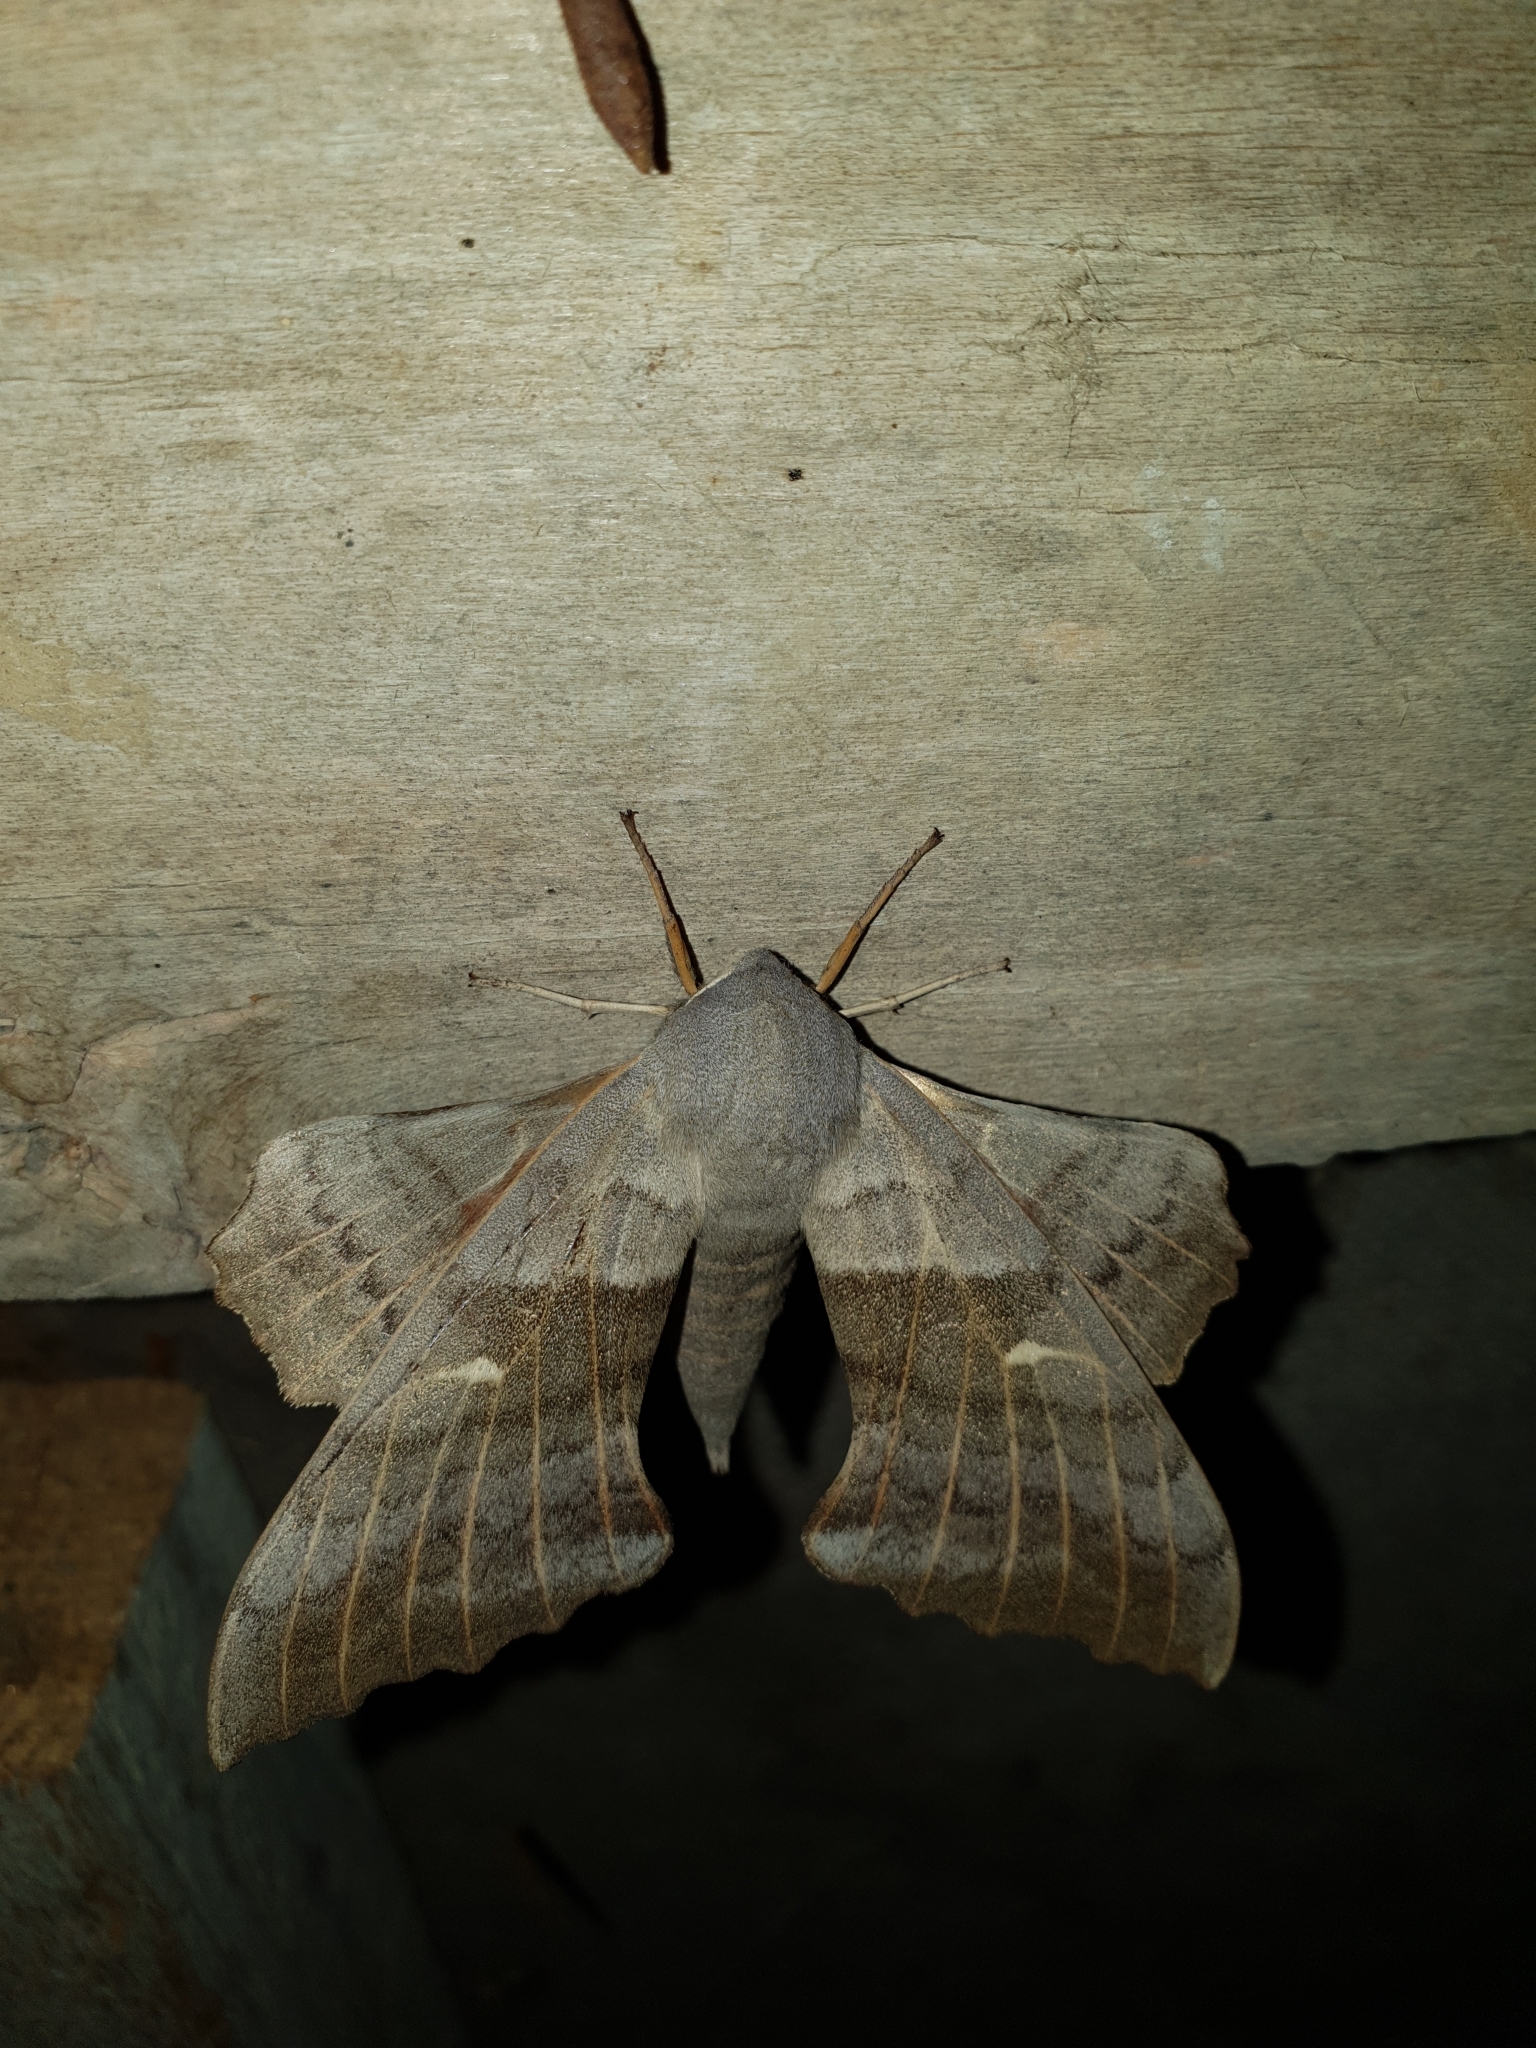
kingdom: Animalia
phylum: Arthropoda
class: Insecta
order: Lepidoptera
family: Sphingidae
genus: Laothoe
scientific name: Laothoe populi
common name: Poplar hawk-moth
